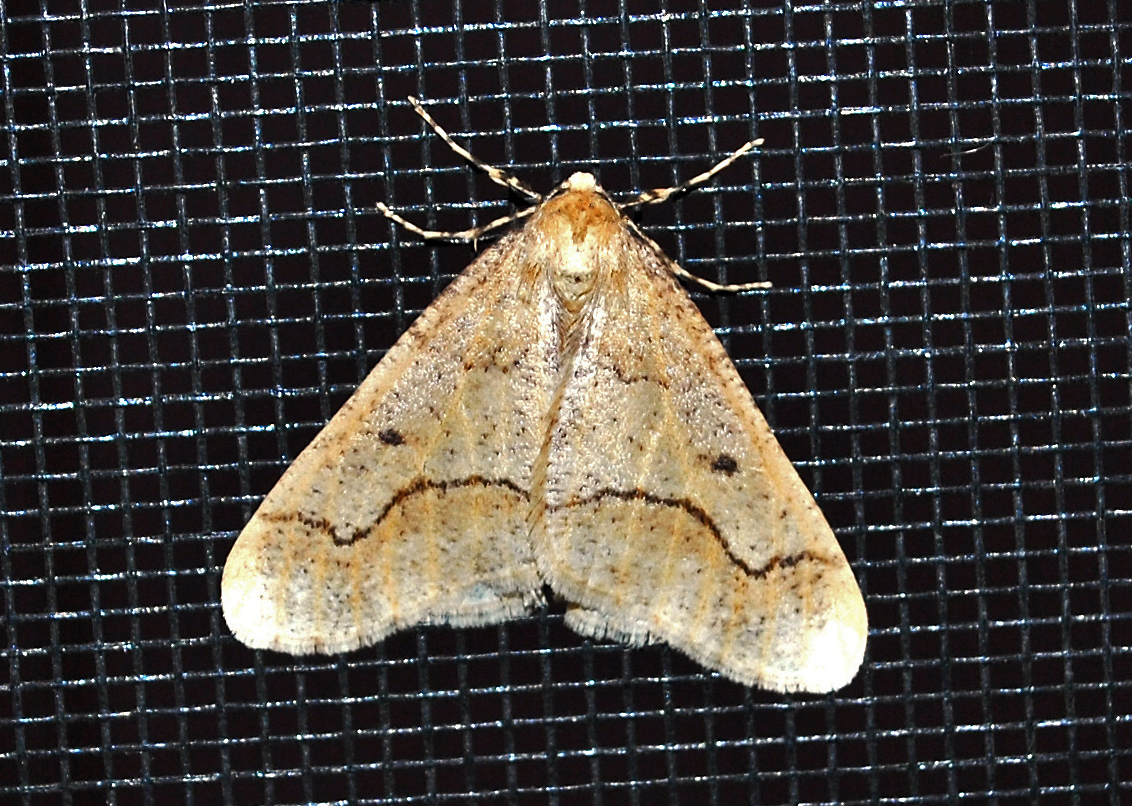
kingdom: Animalia
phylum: Arthropoda
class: Insecta
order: Lepidoptera
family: Geometridae
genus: Erannis
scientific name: Erannis tiliaria
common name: Linden looper
